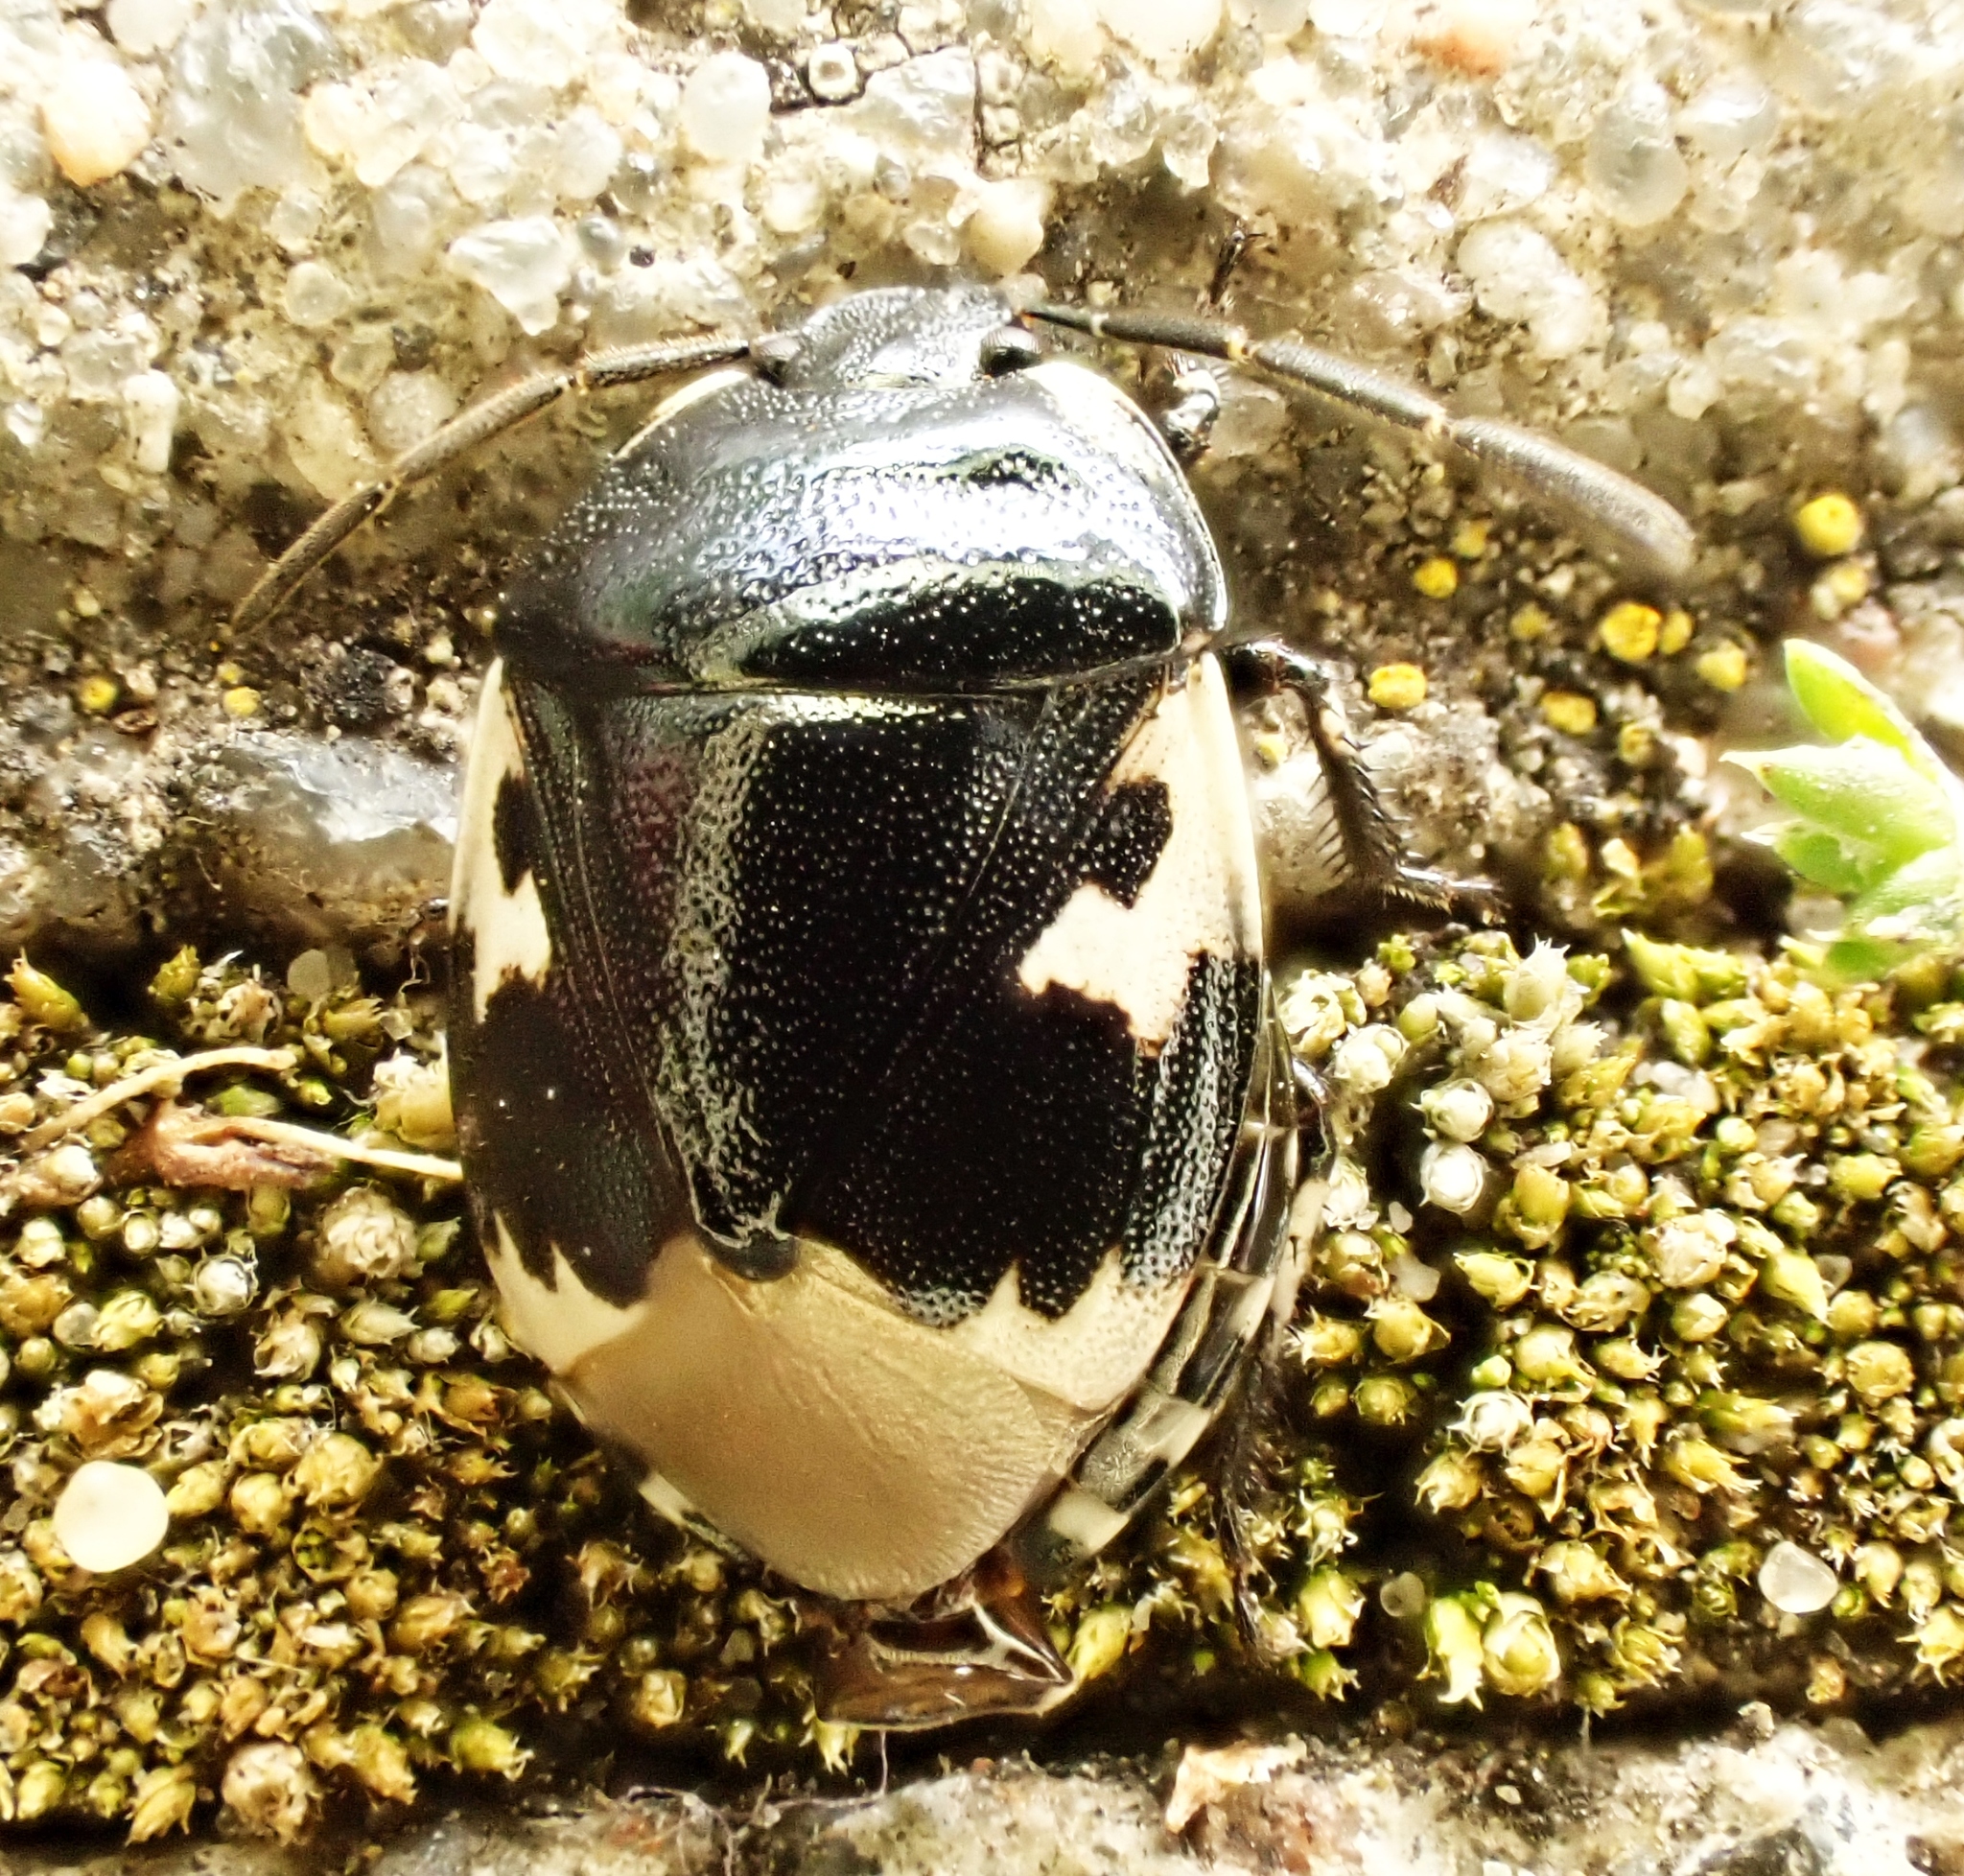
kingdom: Animalia
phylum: Arthropoda
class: Insecta
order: Hemiptera
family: Cydnidae
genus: Tritomegas
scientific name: Tritomegas bicolor
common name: Pied shieldbug
